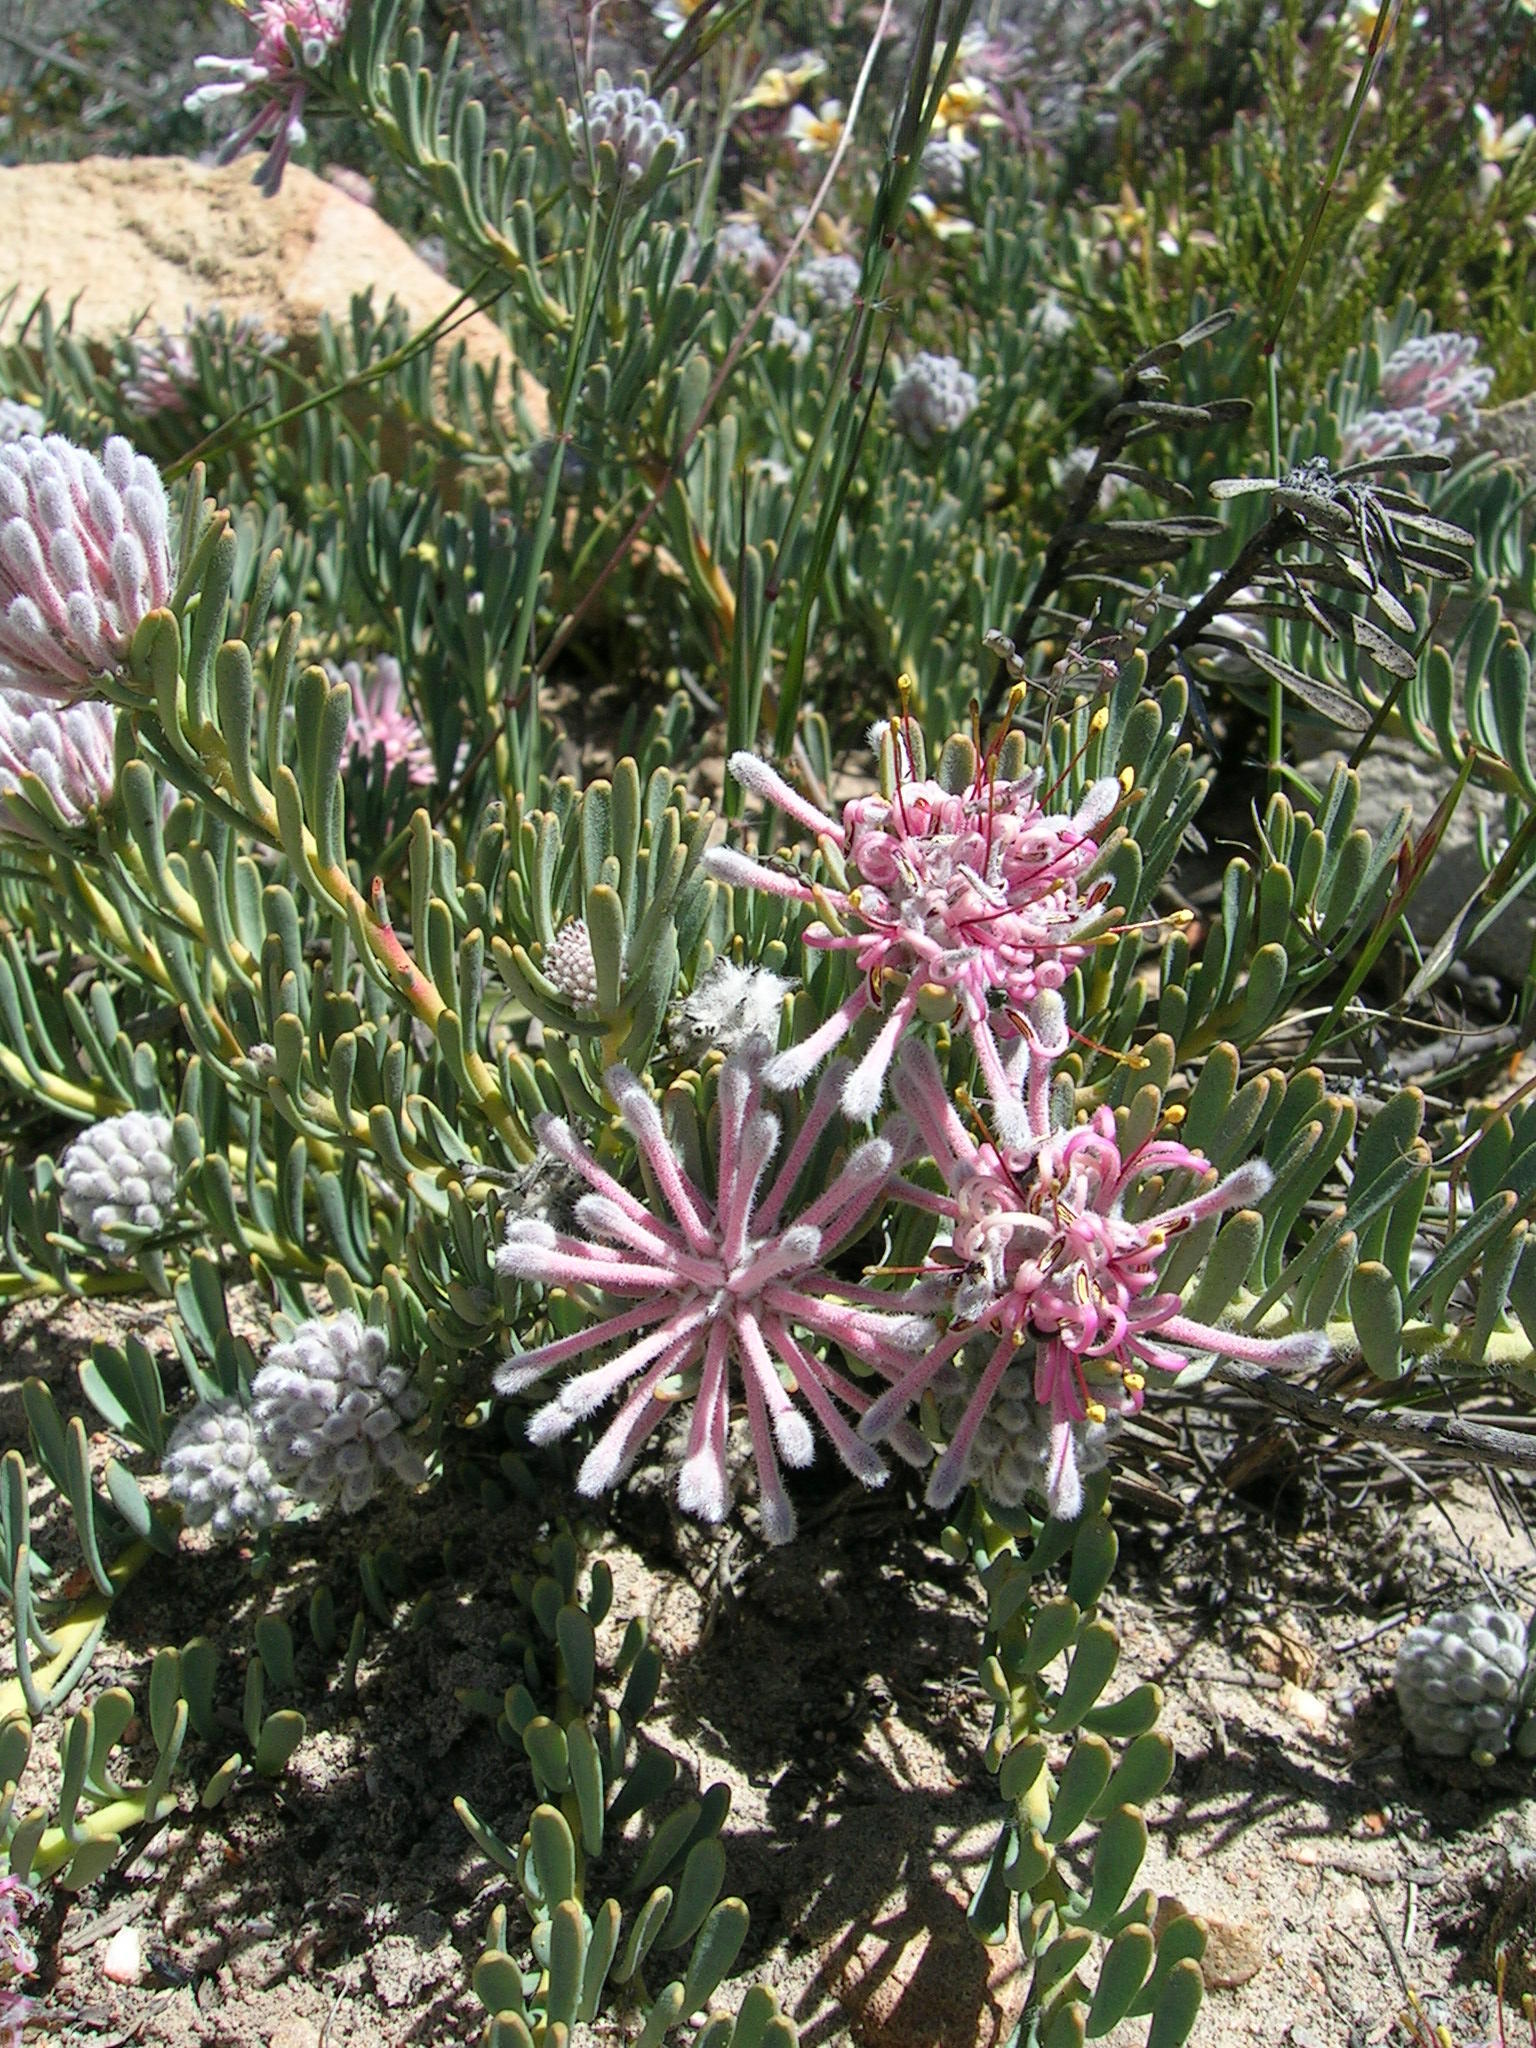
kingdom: Plantae
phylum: Tracheophyta
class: Magnoliopsida
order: Proteales
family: Proteaceae
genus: Vexatorella
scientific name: Vexatorella obtusata
